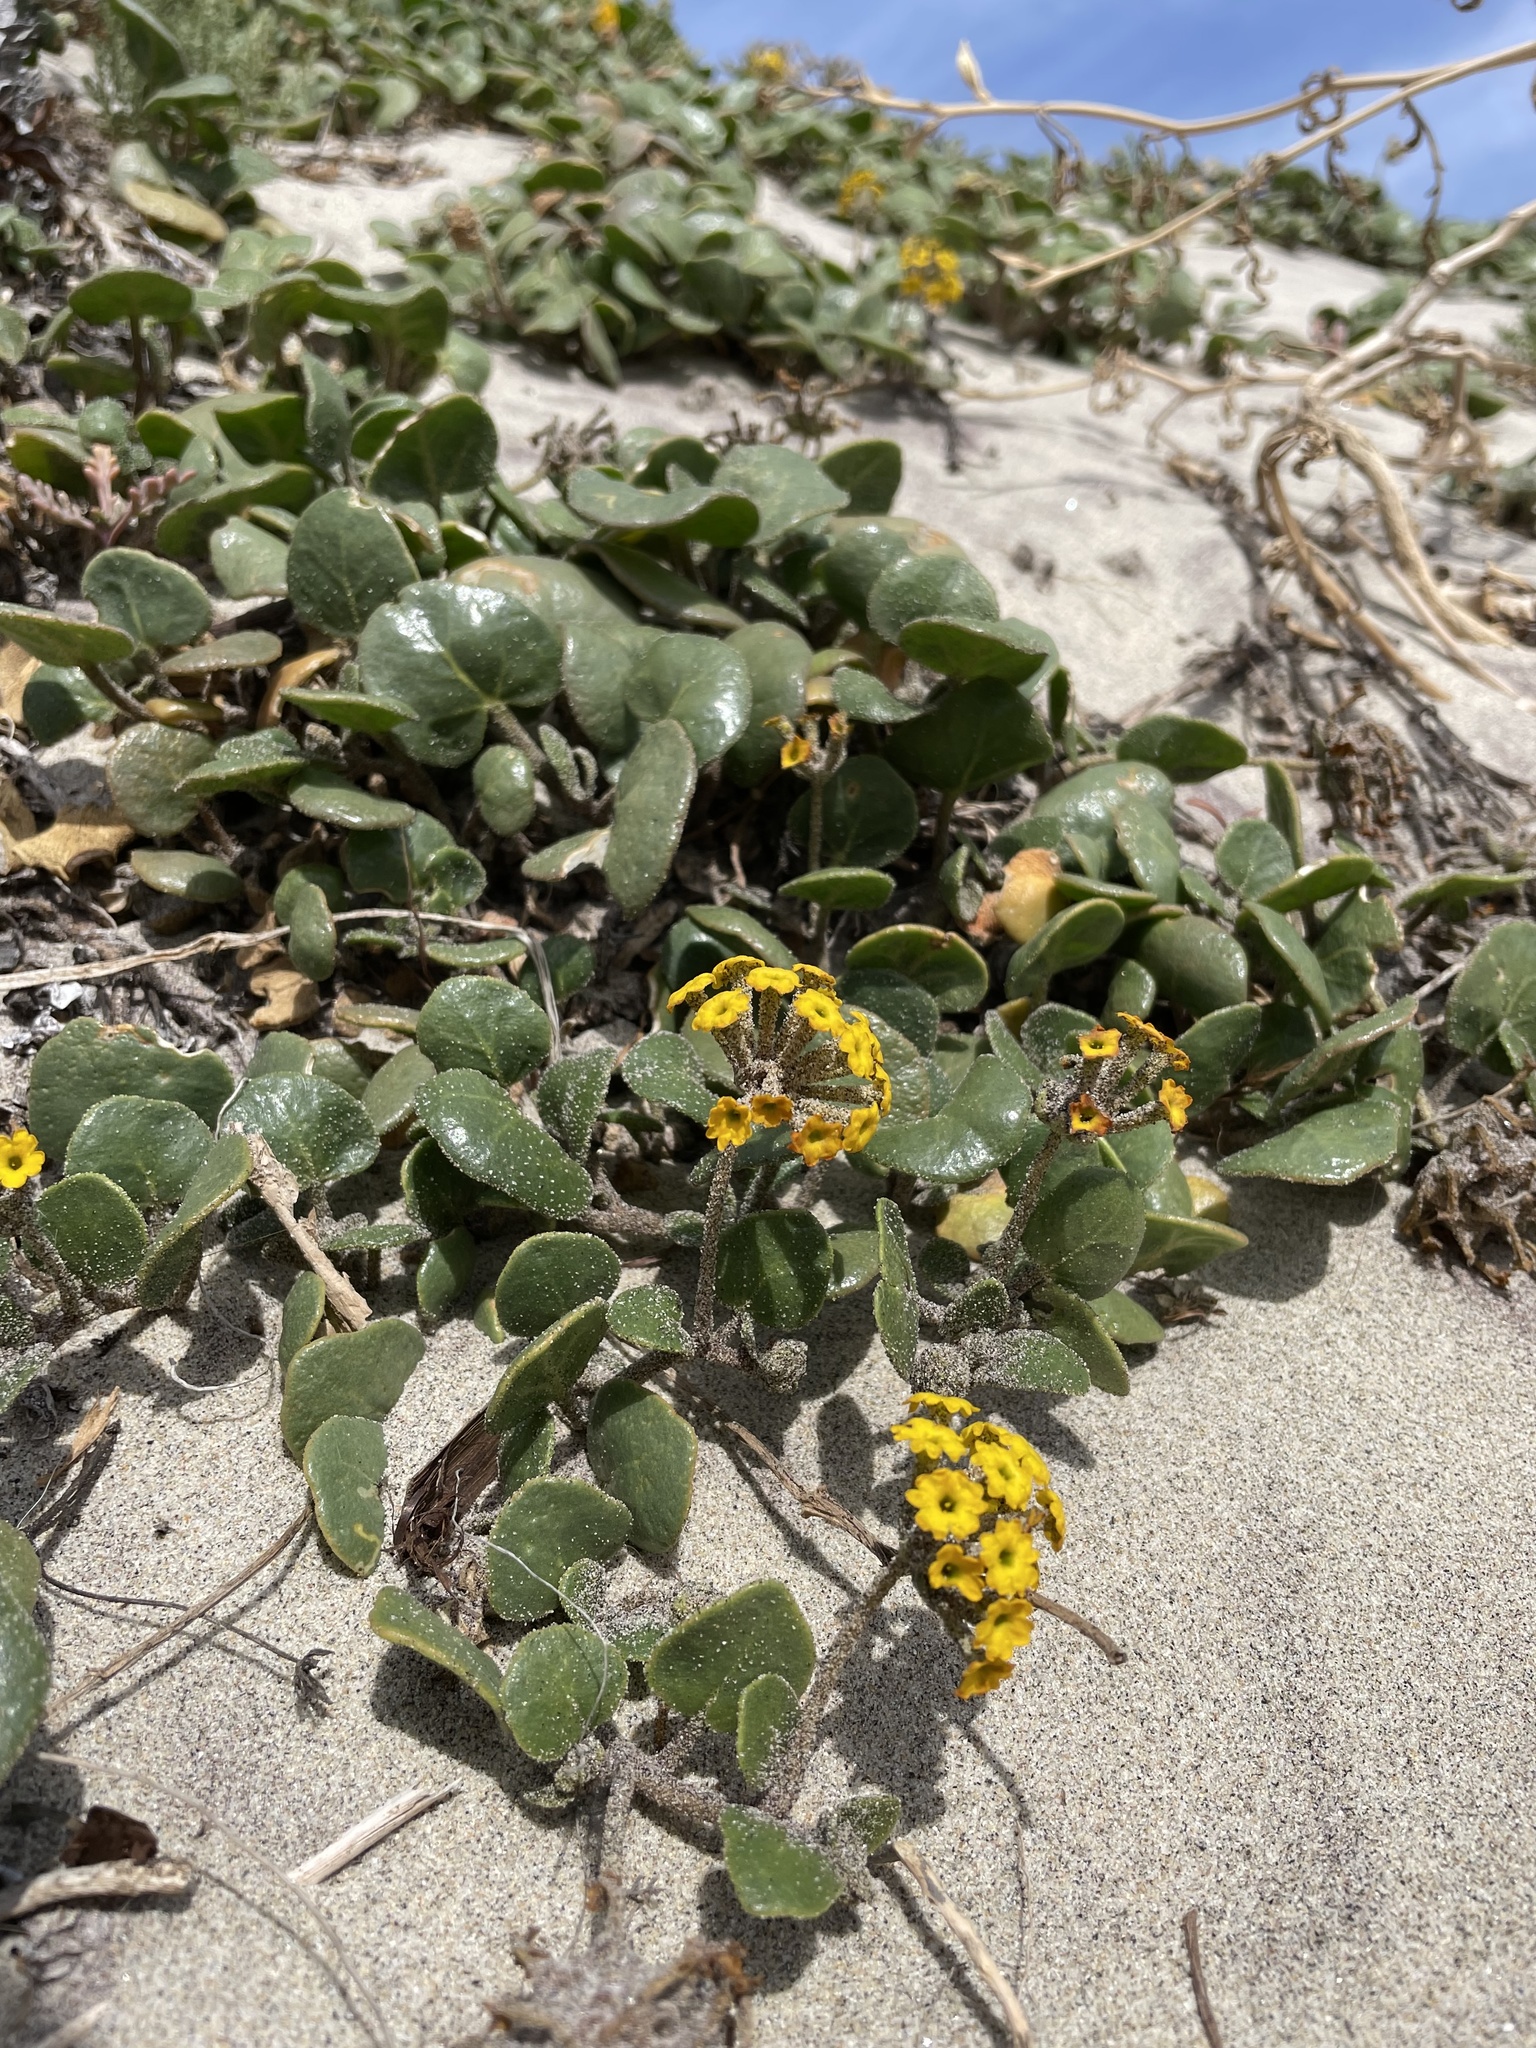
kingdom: Plantae
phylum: Tracheophyta
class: Magnoliopsida
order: Caryophyllales
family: Nyctaginaceae
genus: Abronia
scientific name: Abronia latifolia
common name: Yellow sand-verbena
